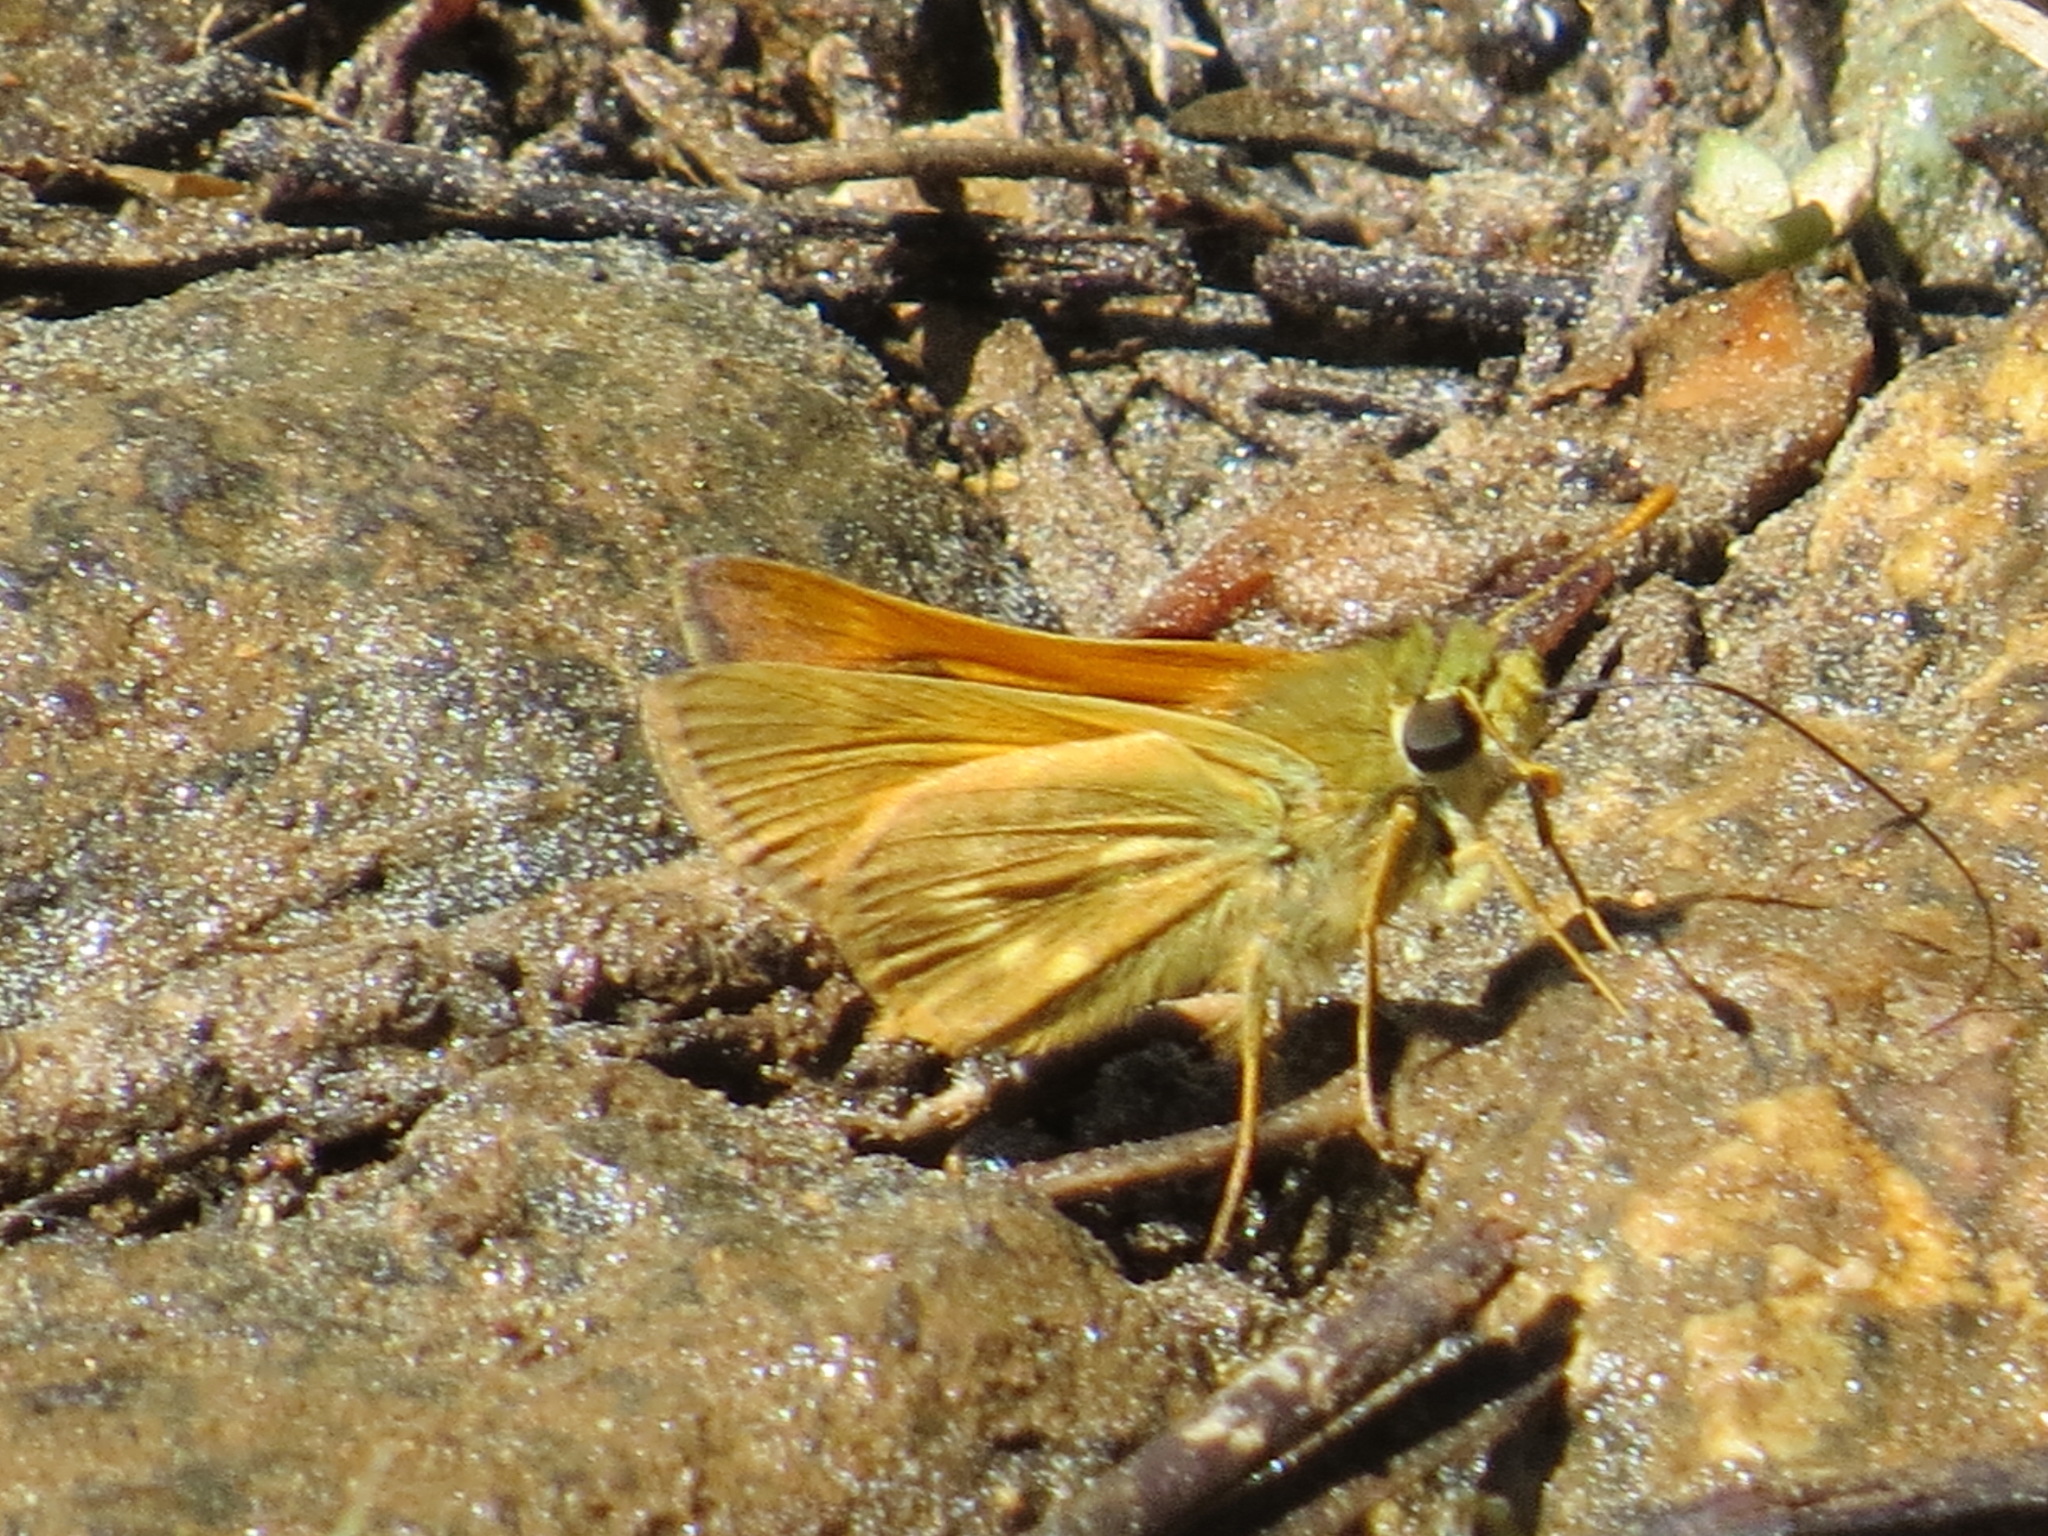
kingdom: Animalia
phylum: Arthropoda
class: Insecta
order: Lepidoptera
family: Hesperiidae
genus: Polites
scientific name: Polites mystic
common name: Long dash
